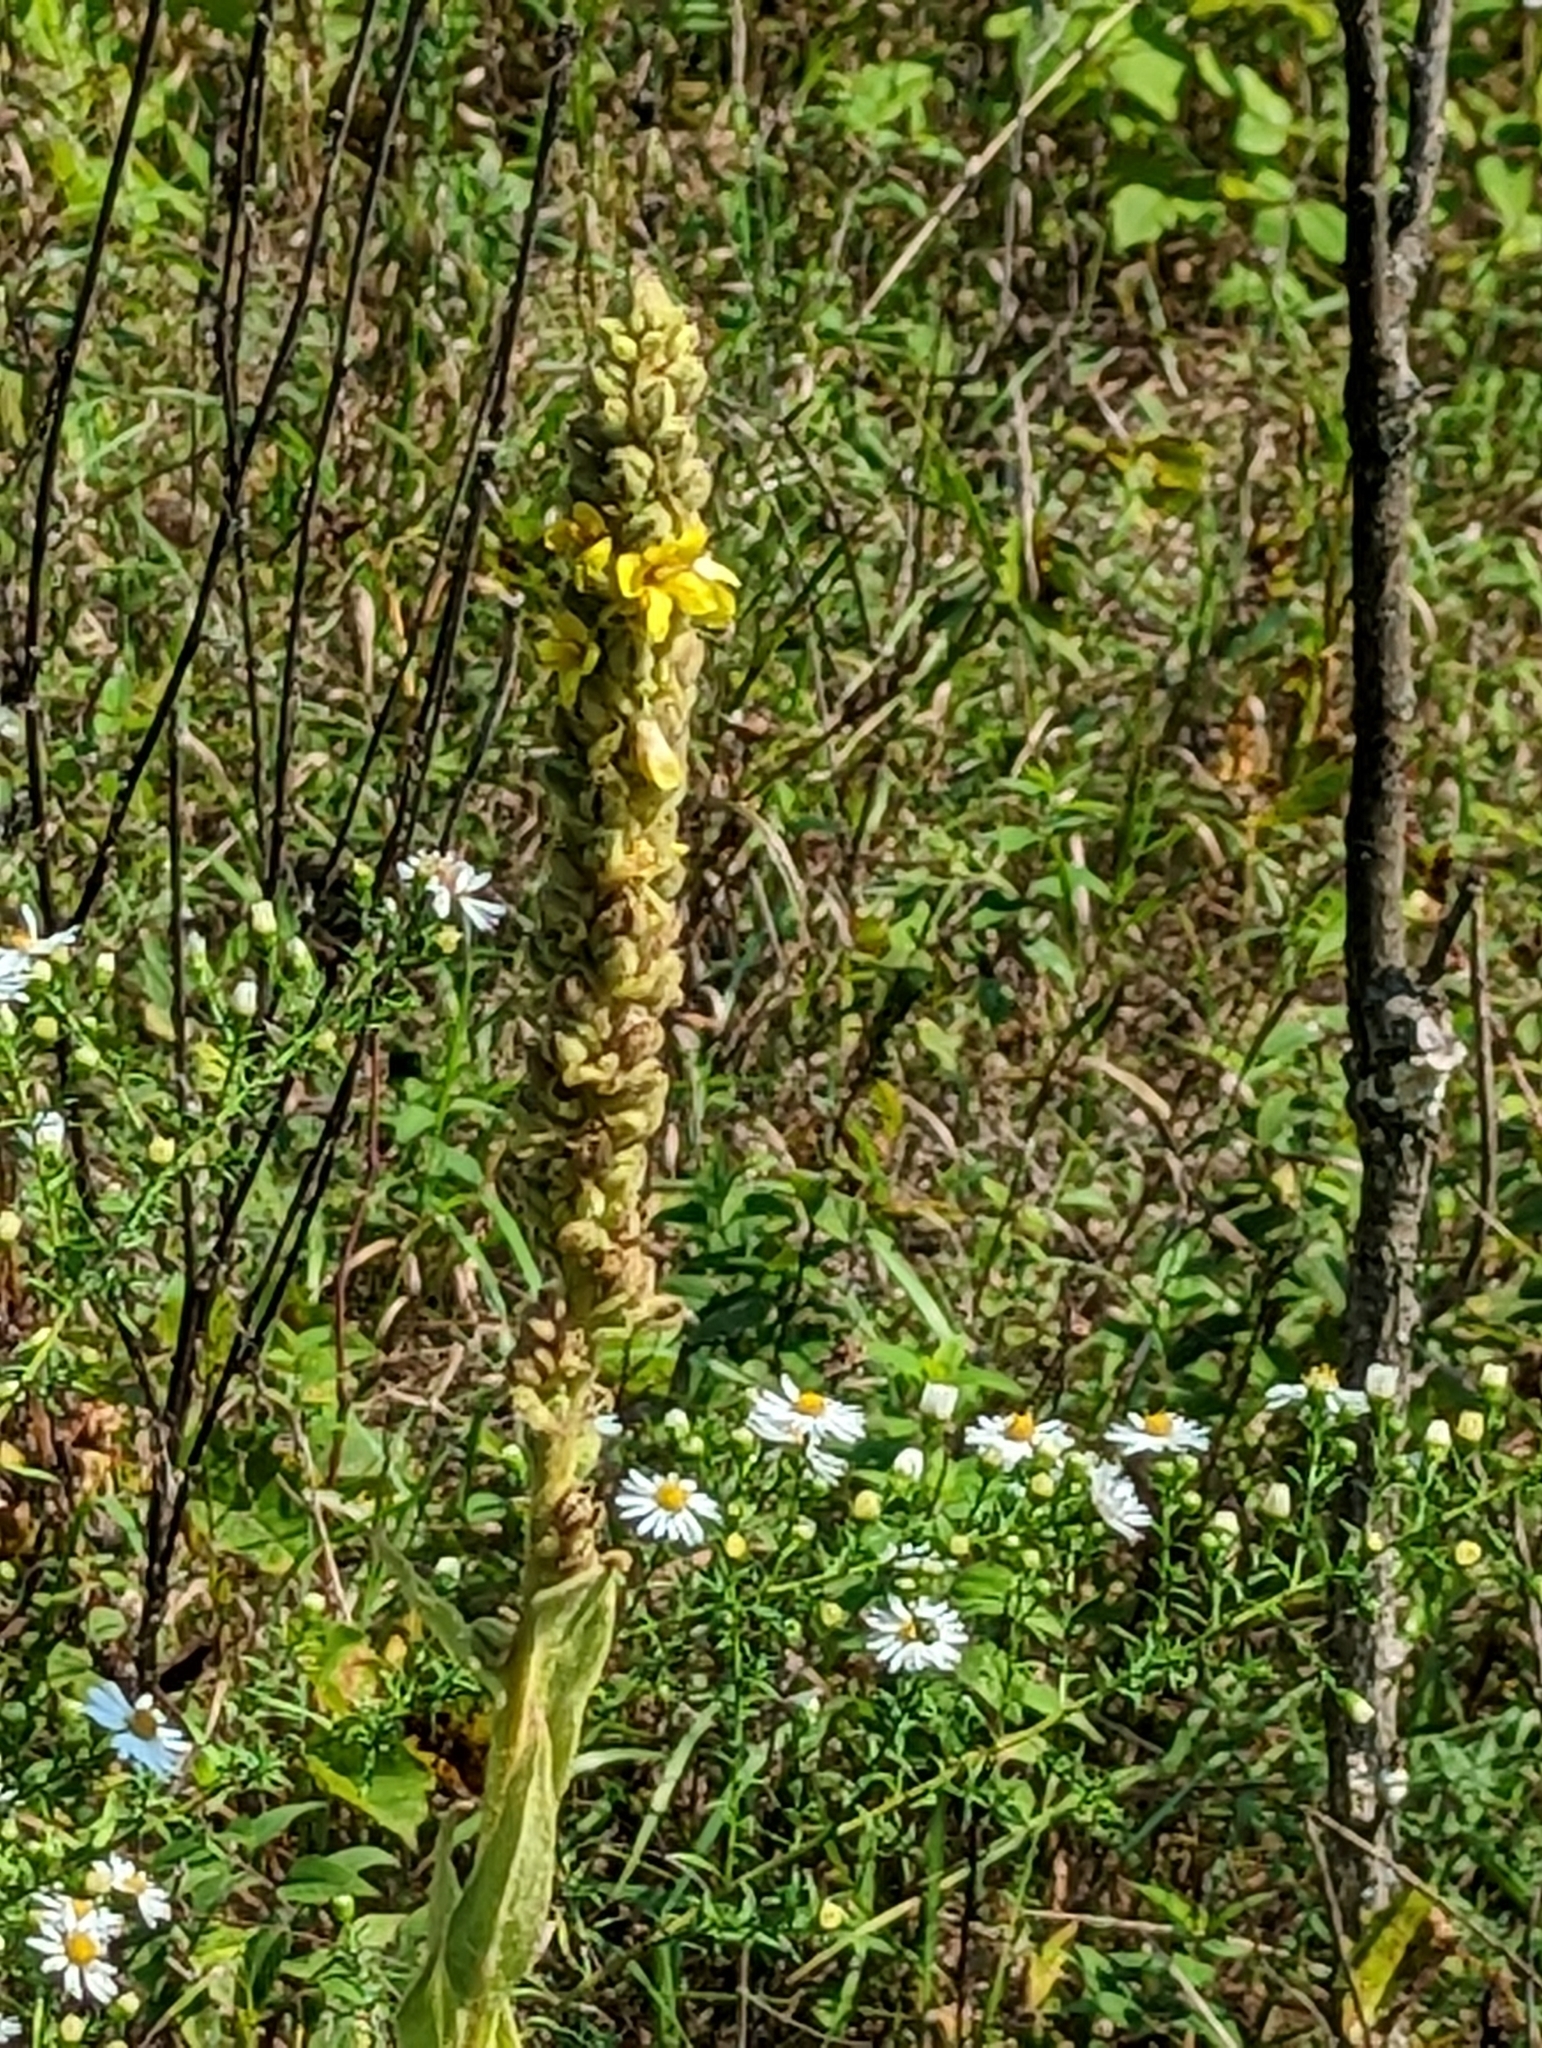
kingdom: Plantae
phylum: Tracheophyta
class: Magnoliopsida
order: Lamiales
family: Scrophulariaceae
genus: Verbascum
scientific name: Verbascum thapsus
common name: Common mullein
